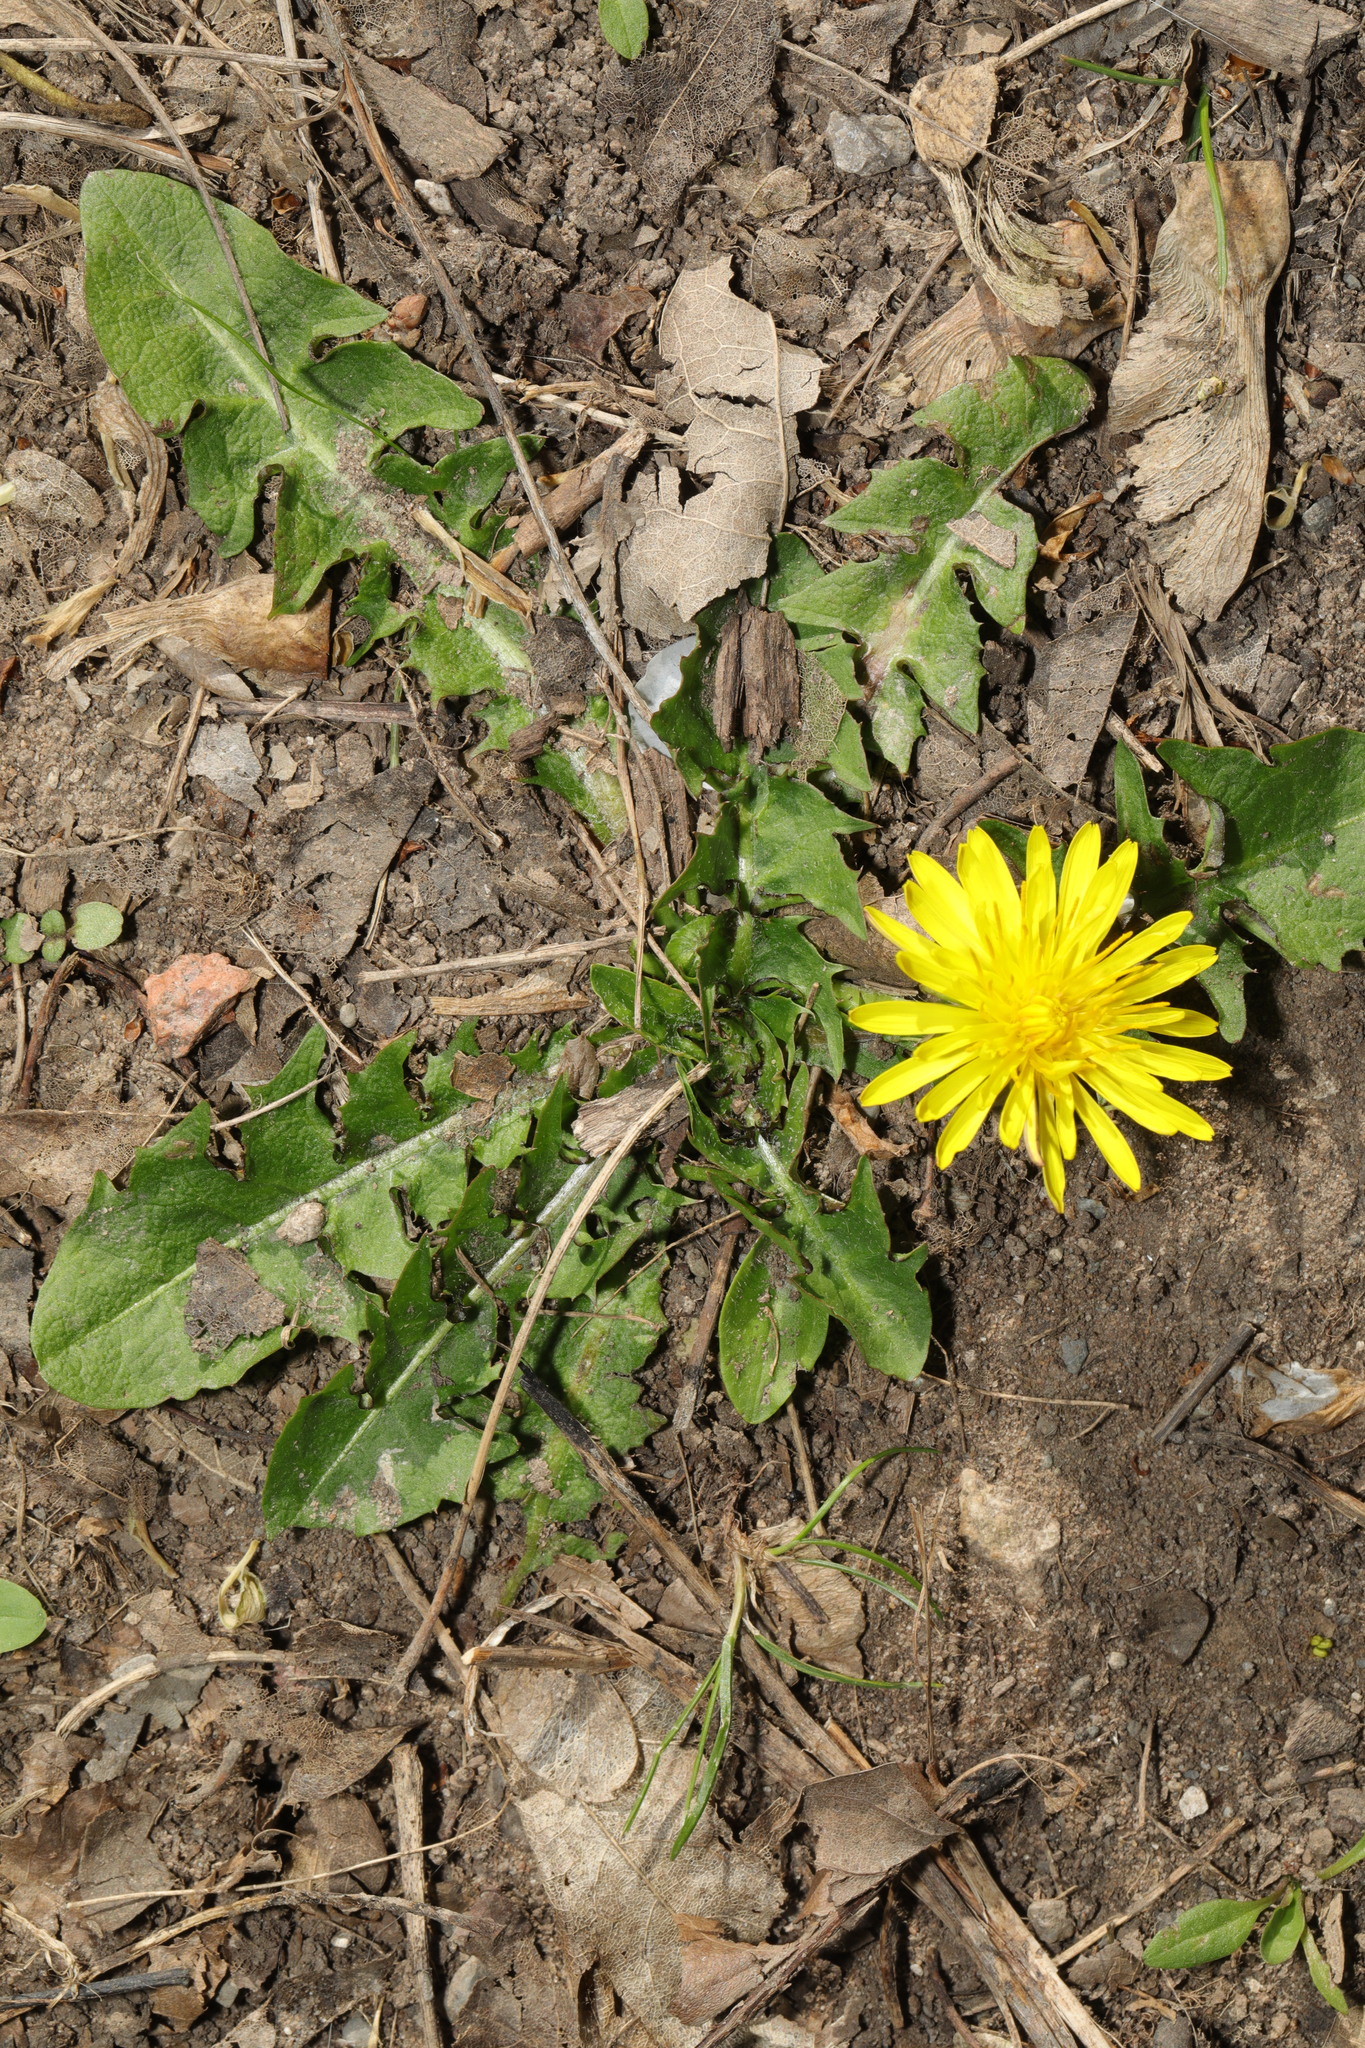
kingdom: Plantae
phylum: Tracheophyta
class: Magnoliopsida
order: Asterales
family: Asteraceae
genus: Taraxacum
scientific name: Taraxacum officinale
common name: Common dandelion
